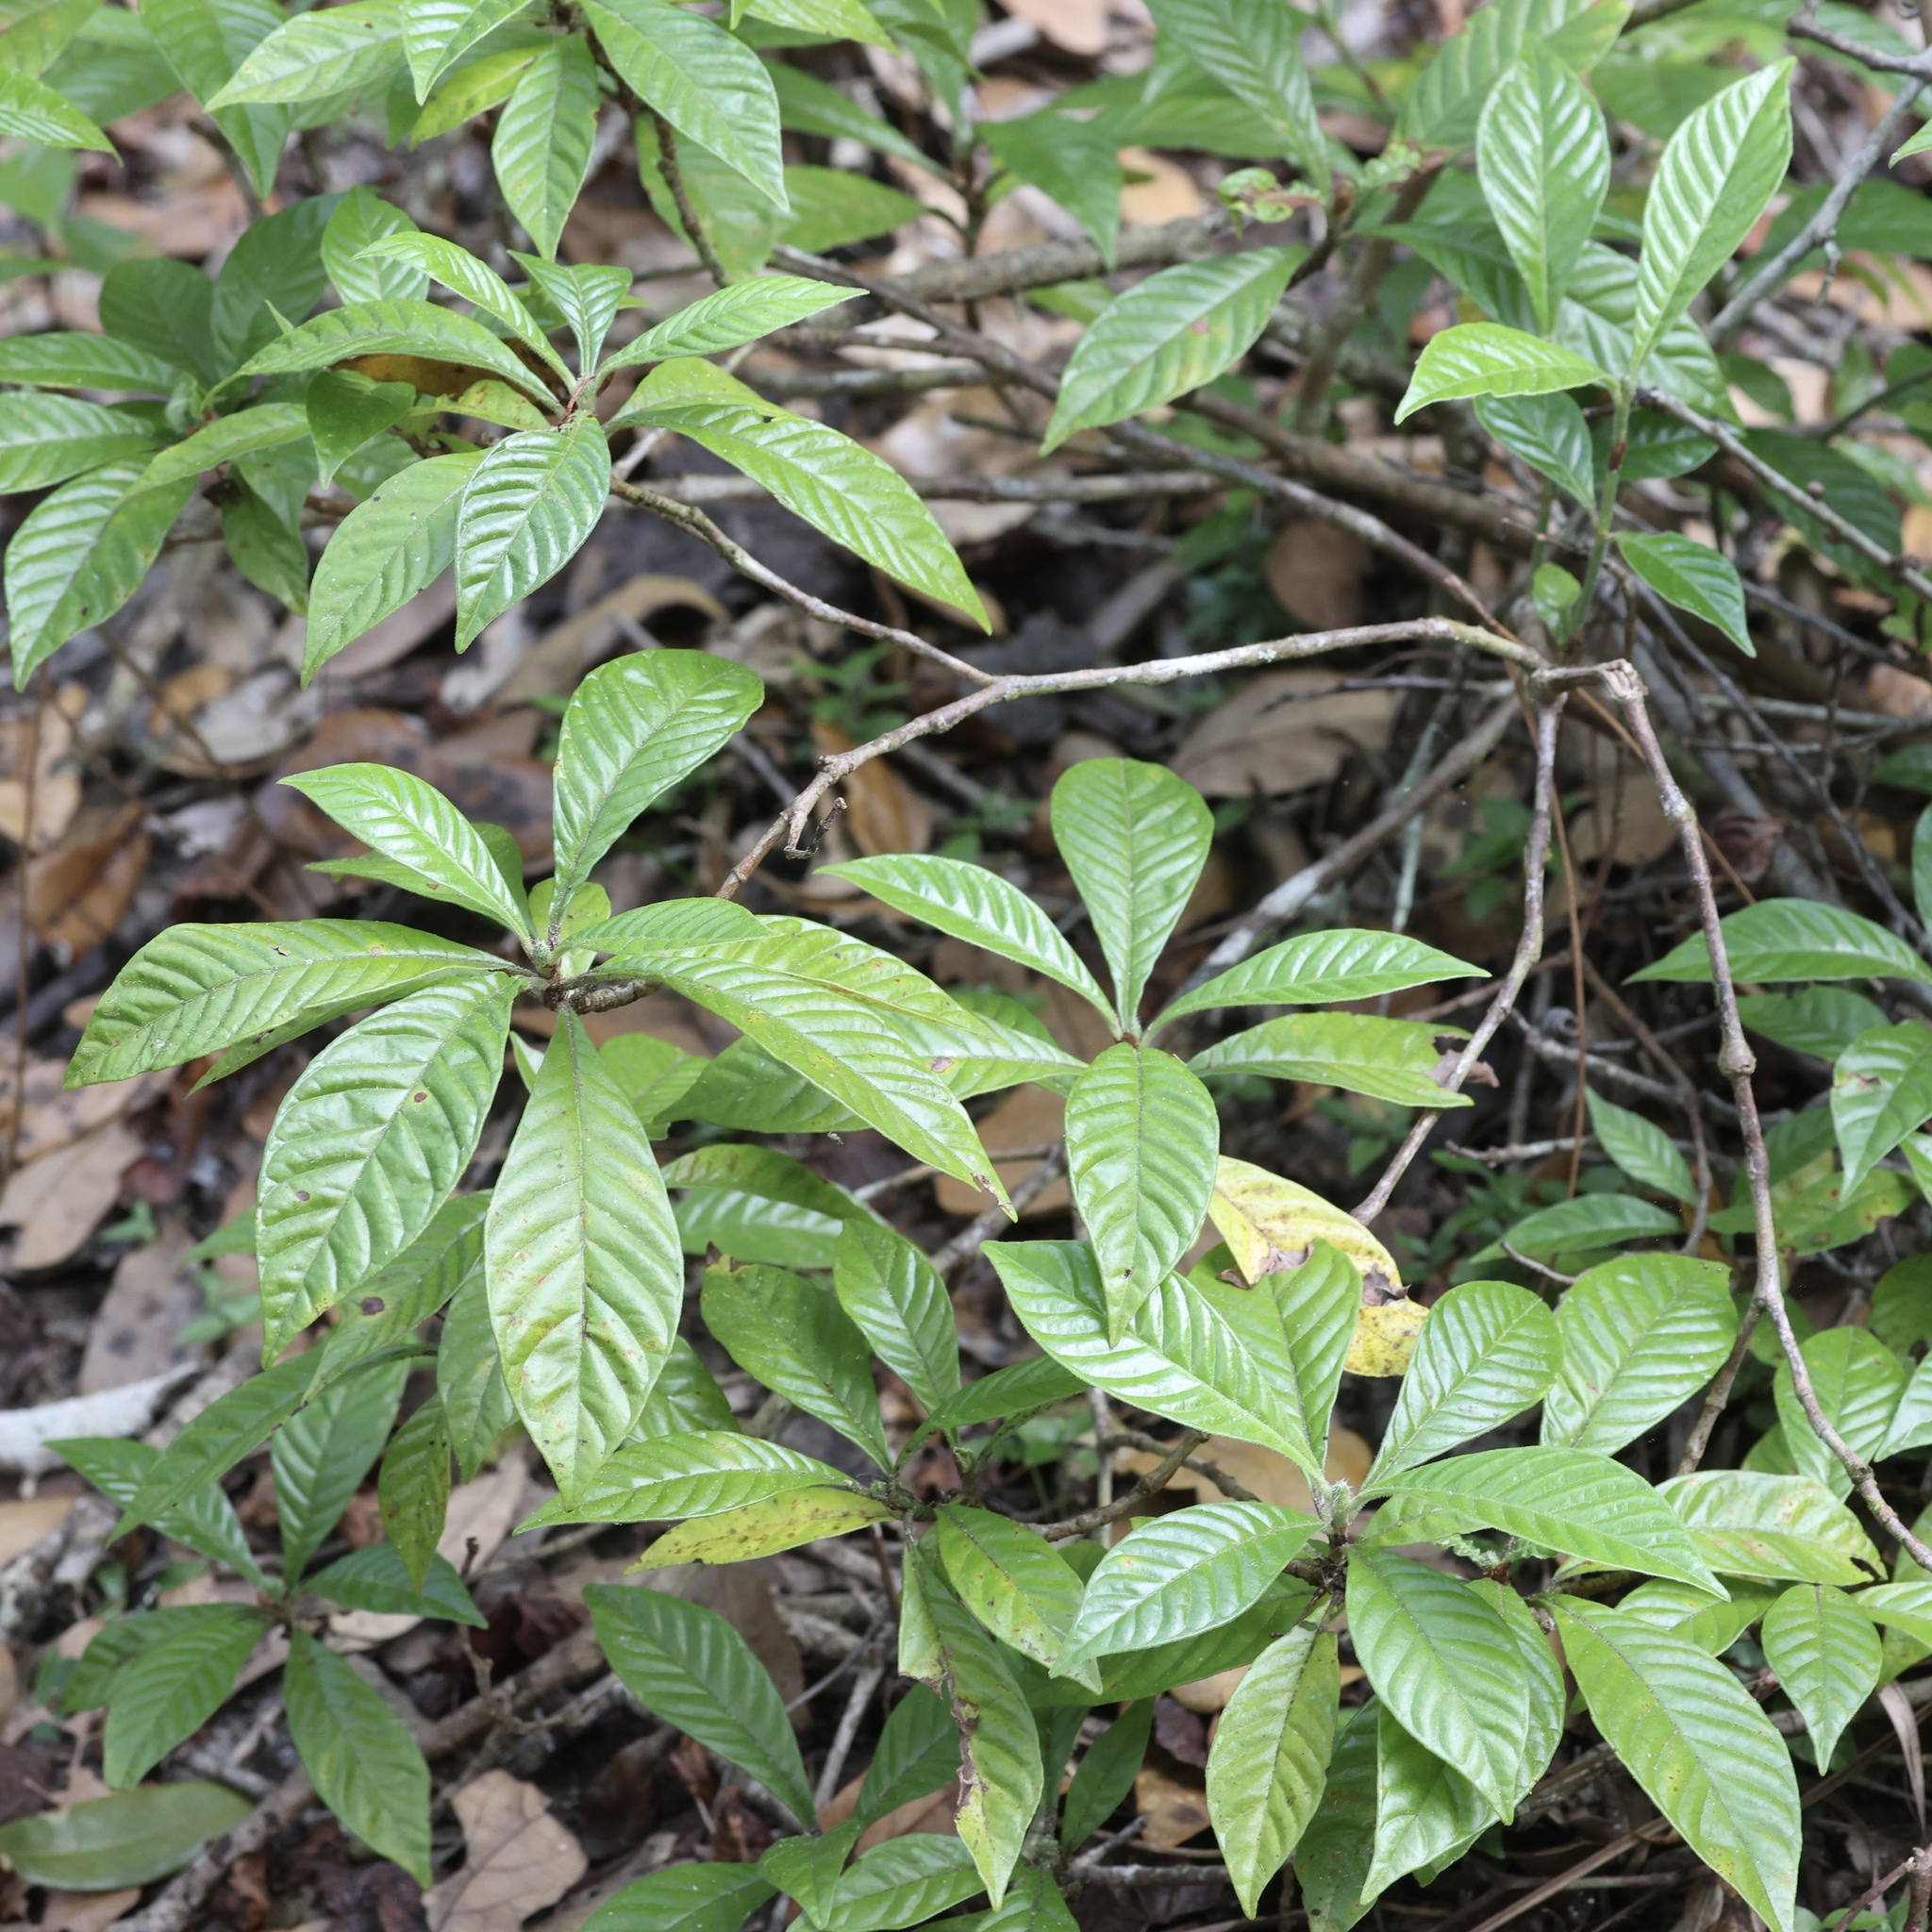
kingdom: Plantae
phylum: Tracheophyta
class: Magnoliopsida
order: Gentianales
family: Rubiaceae
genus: Psychotria
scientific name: Psychotria nervosa
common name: Bastard cankerberry
